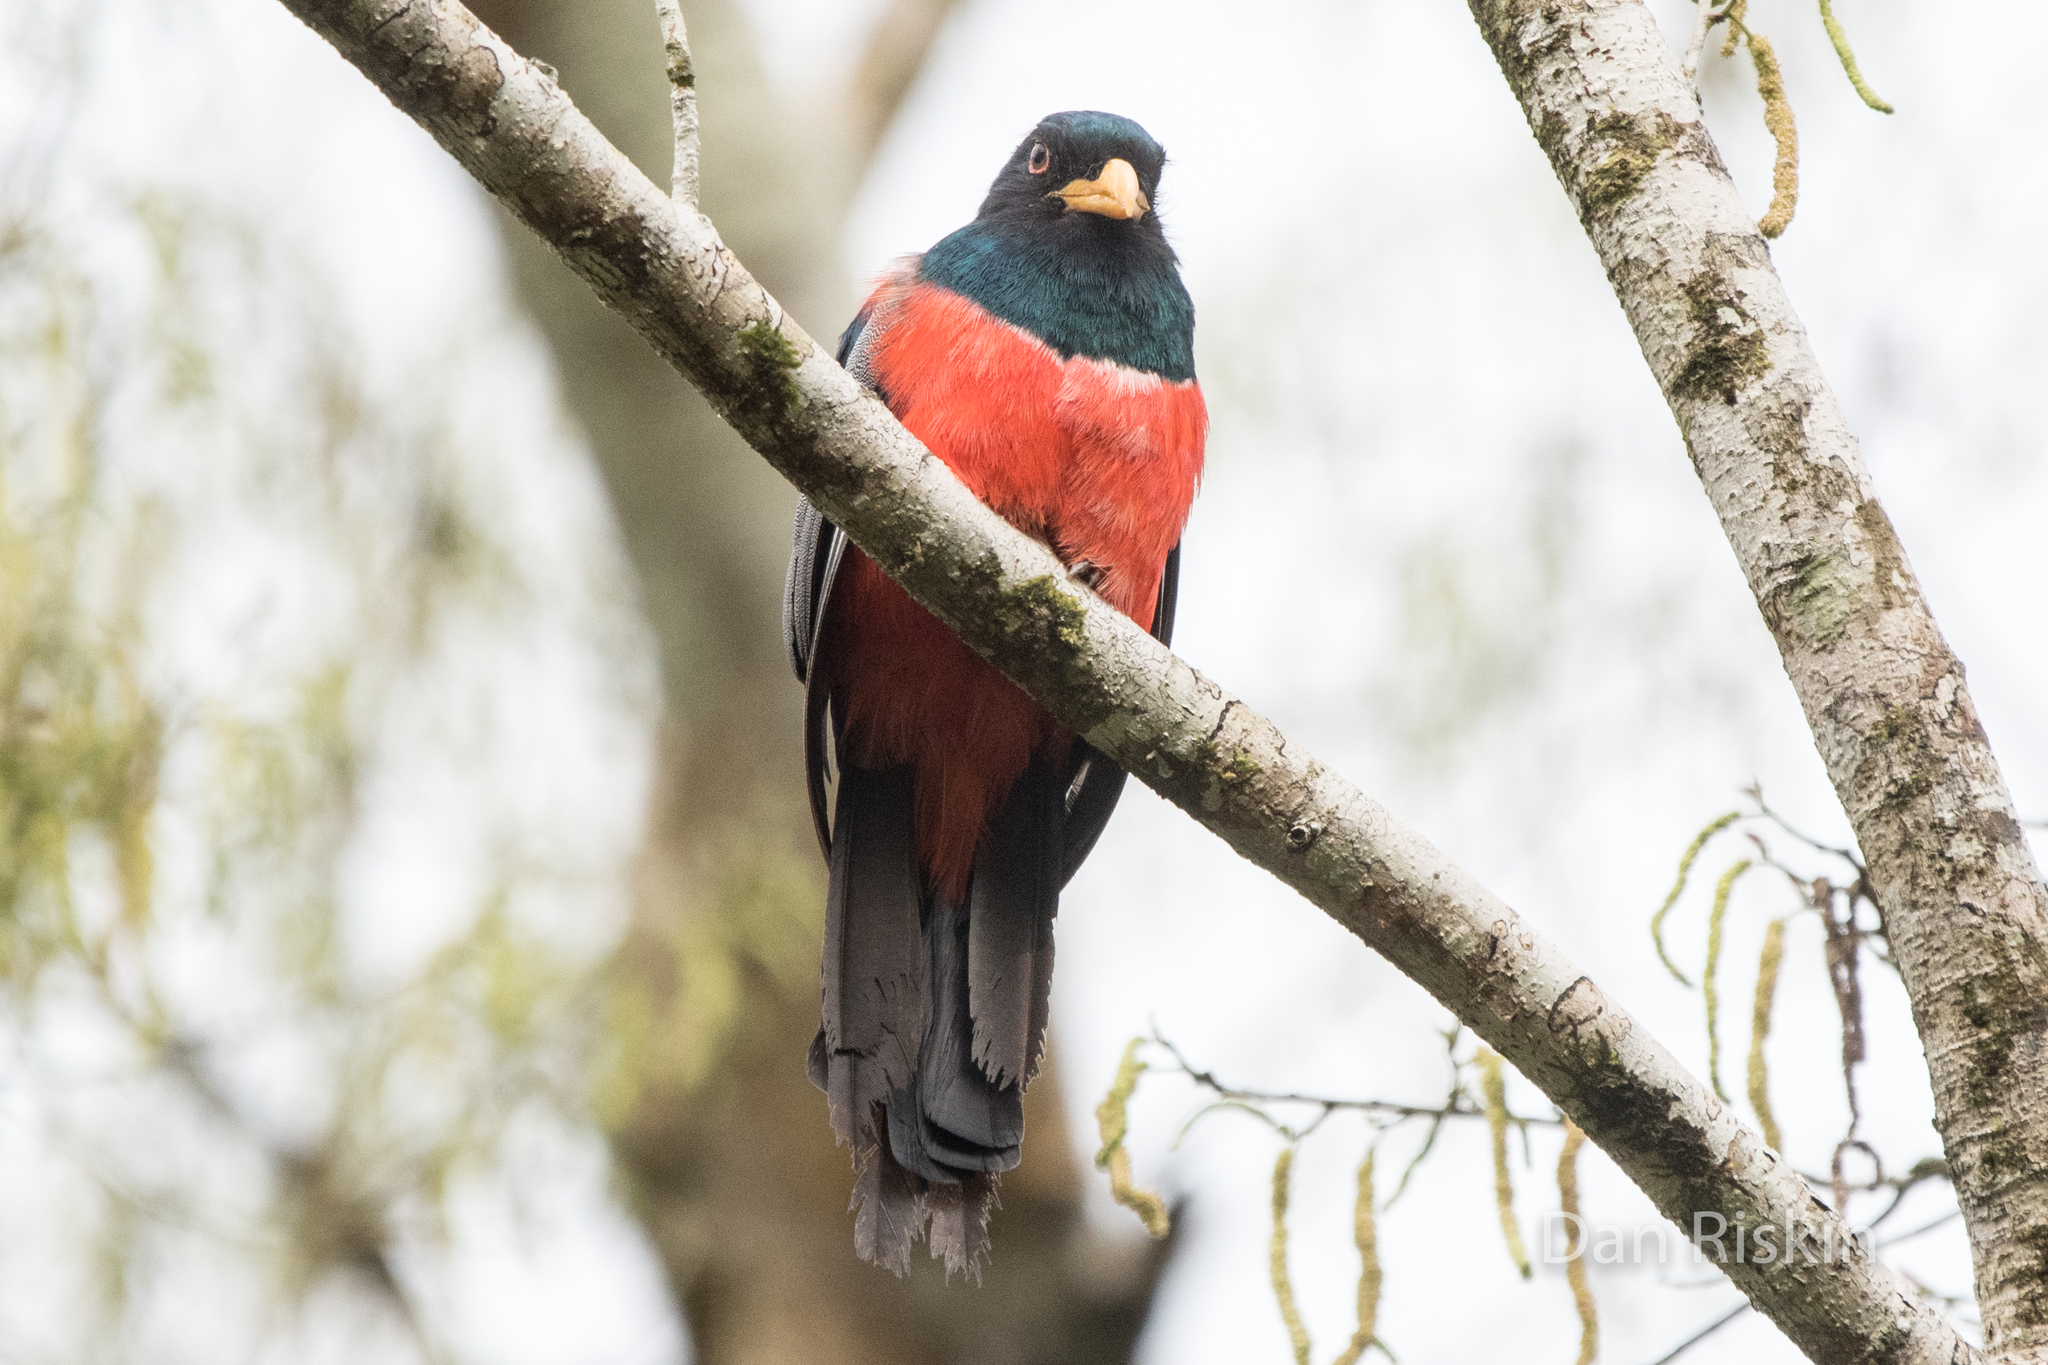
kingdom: Animalia
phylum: Chordata
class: Aves
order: Trogoniformes
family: Trogonidae
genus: Trogon
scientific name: Trogon melanurus
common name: Black-tailed trogon
